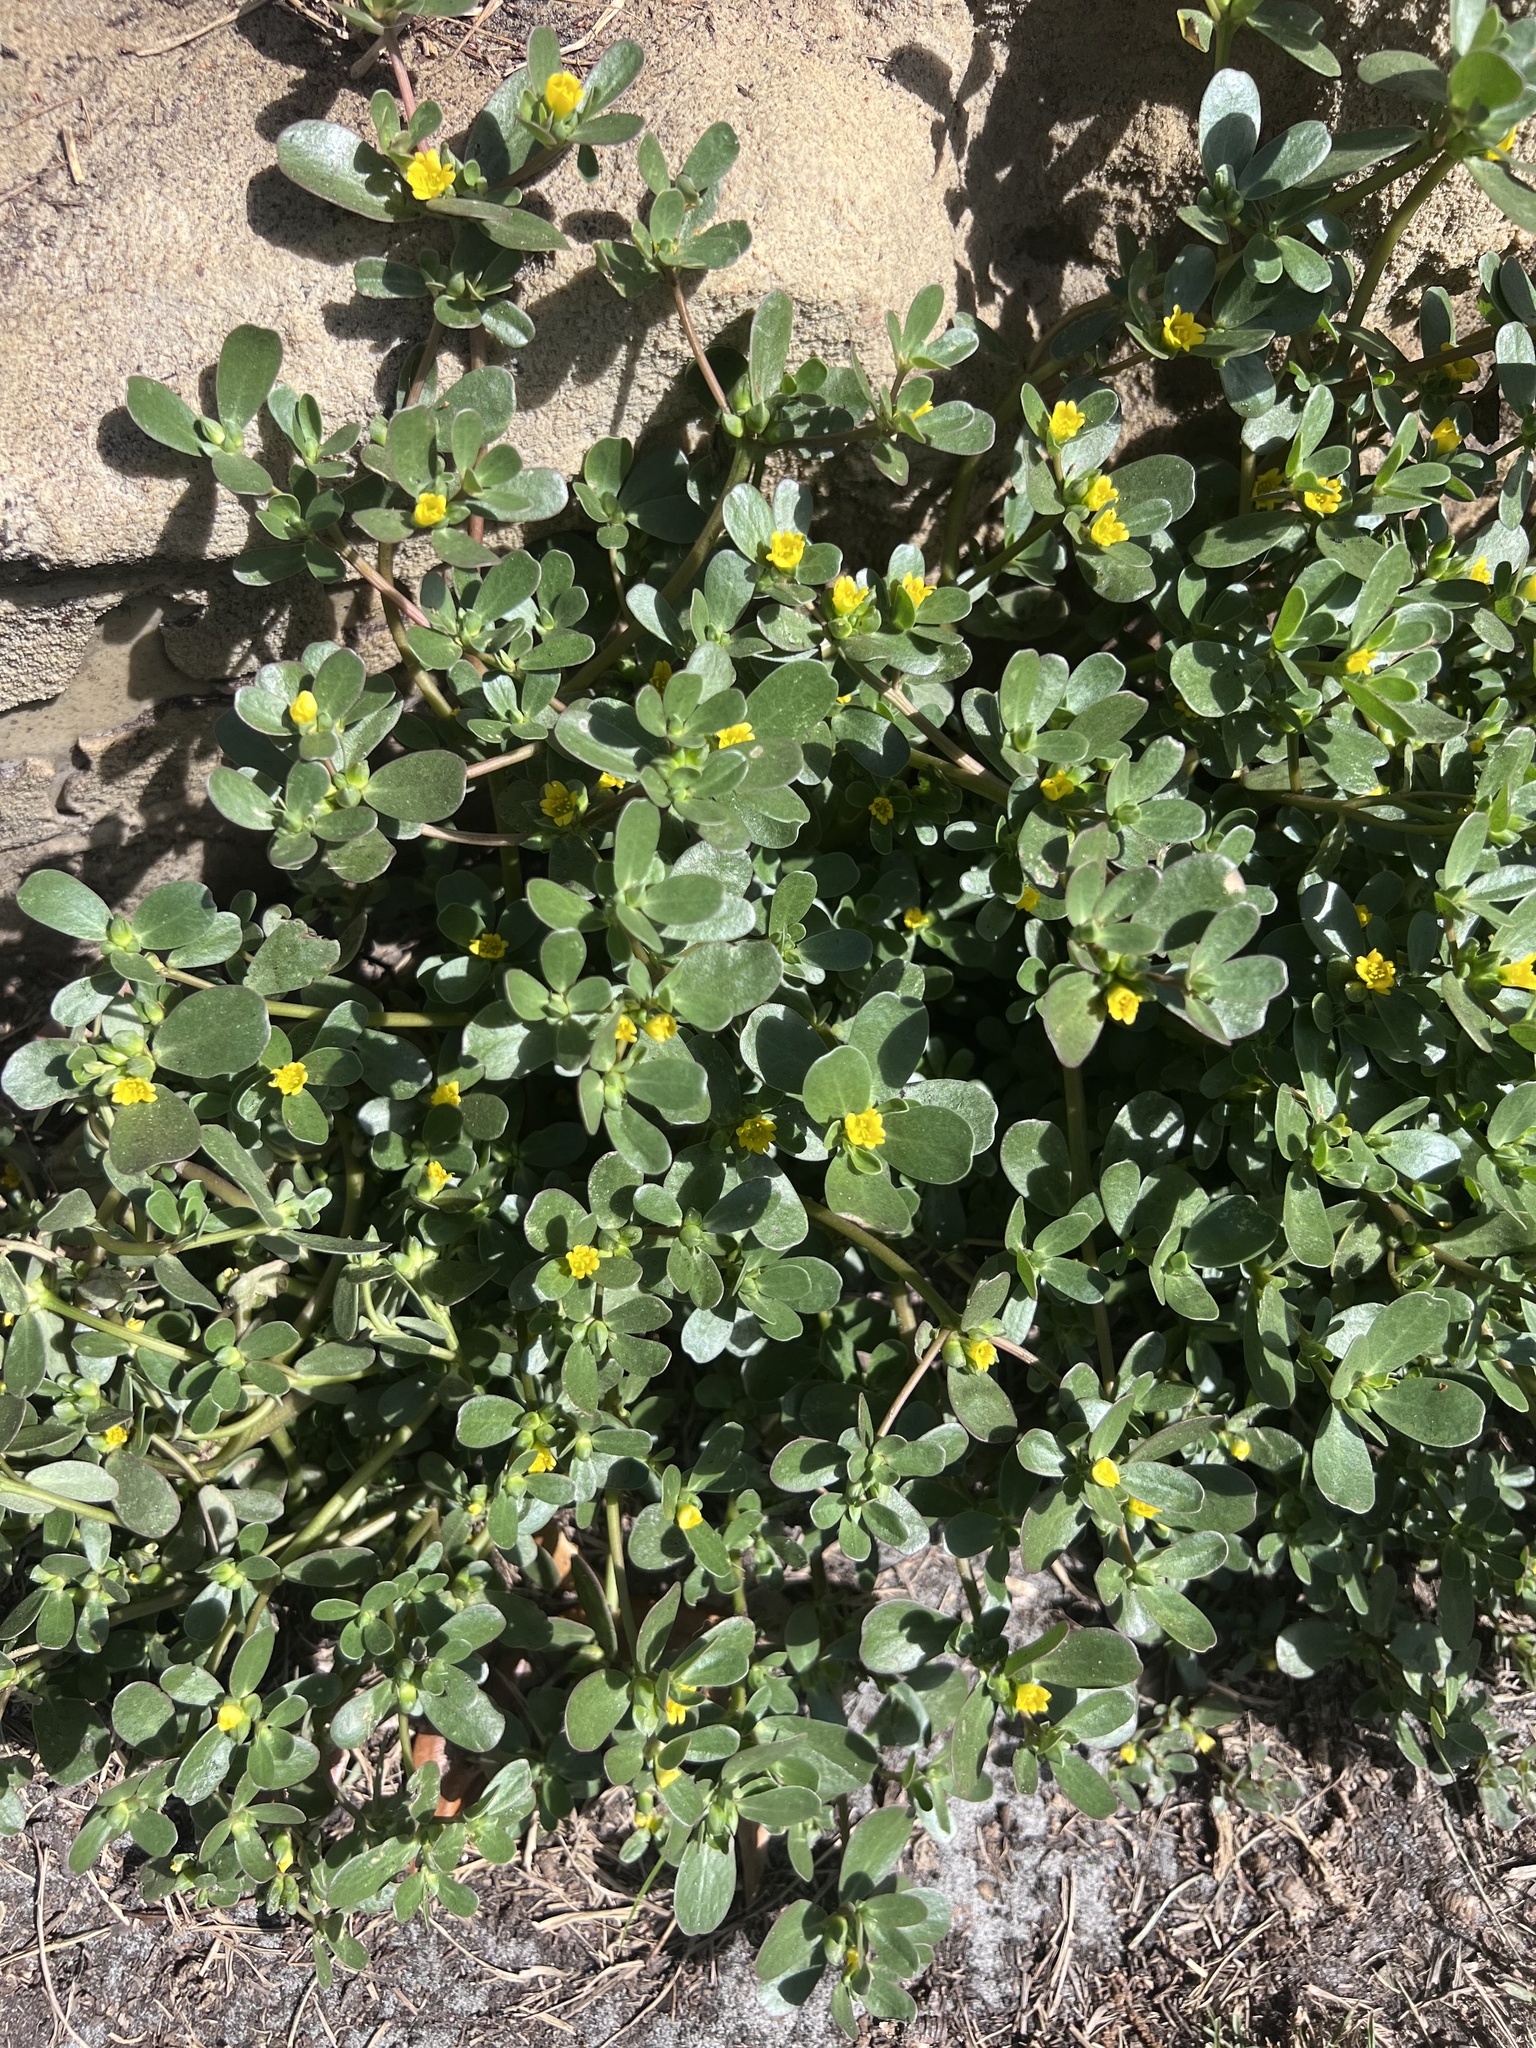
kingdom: Plantae
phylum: Tracheophyta
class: Magnoliopsida
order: Caryophyllales
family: Portulacaceae
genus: Portulaca
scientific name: Portulaca oleracea
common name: Common purslane
